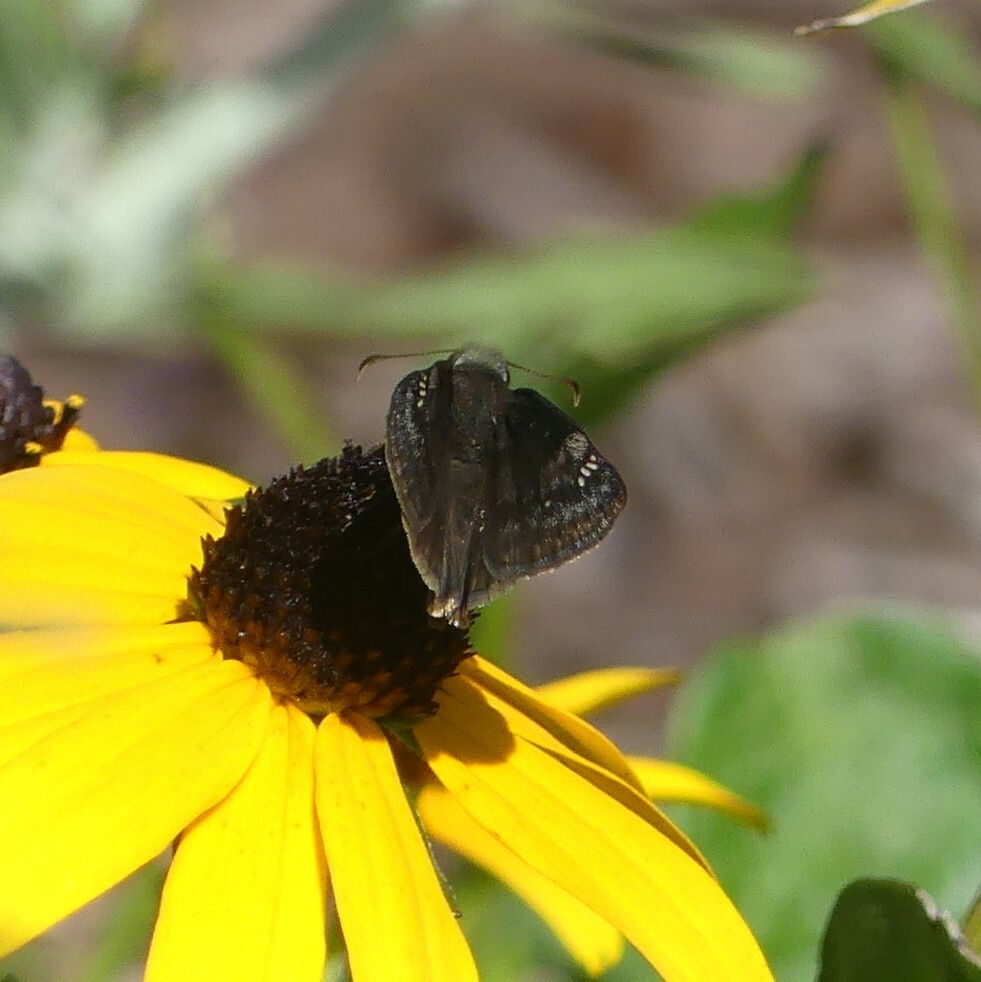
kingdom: Animalia
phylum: Arthropoda
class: Insecta
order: Lepidoptera
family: Hesperiidae
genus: Erynnis
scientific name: Erynnis baptisiae
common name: Wild indigo duskywing
